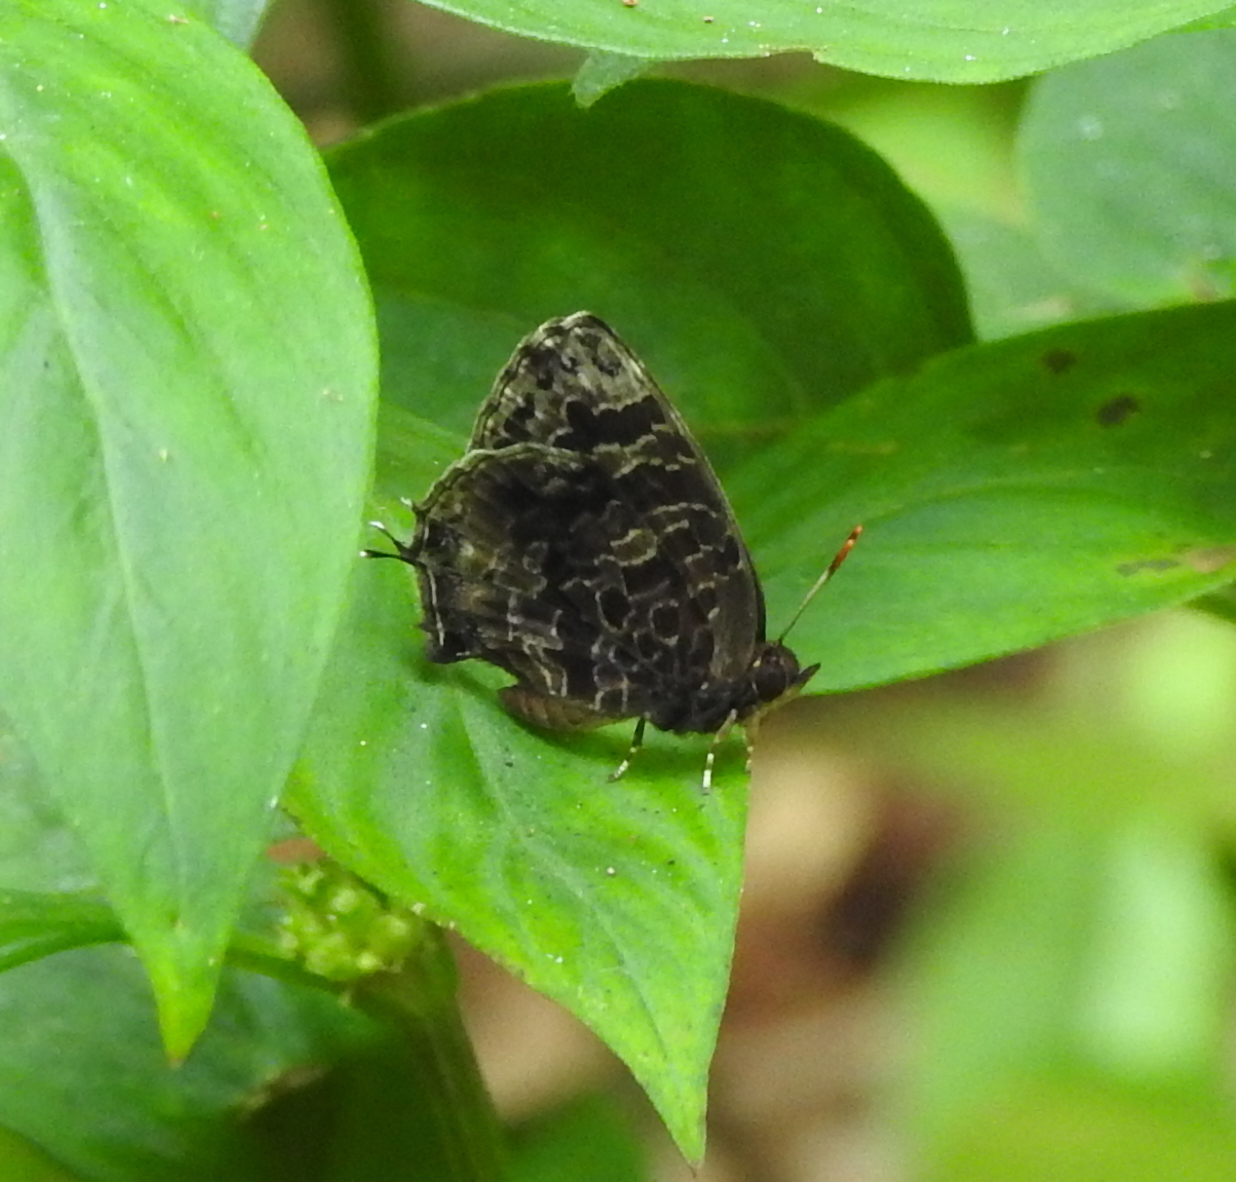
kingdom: Animalia
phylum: Arthropoda
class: Insecta
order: Lepidoptera
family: Lycaenidae
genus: Arhopala
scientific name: Arhopala abseus
